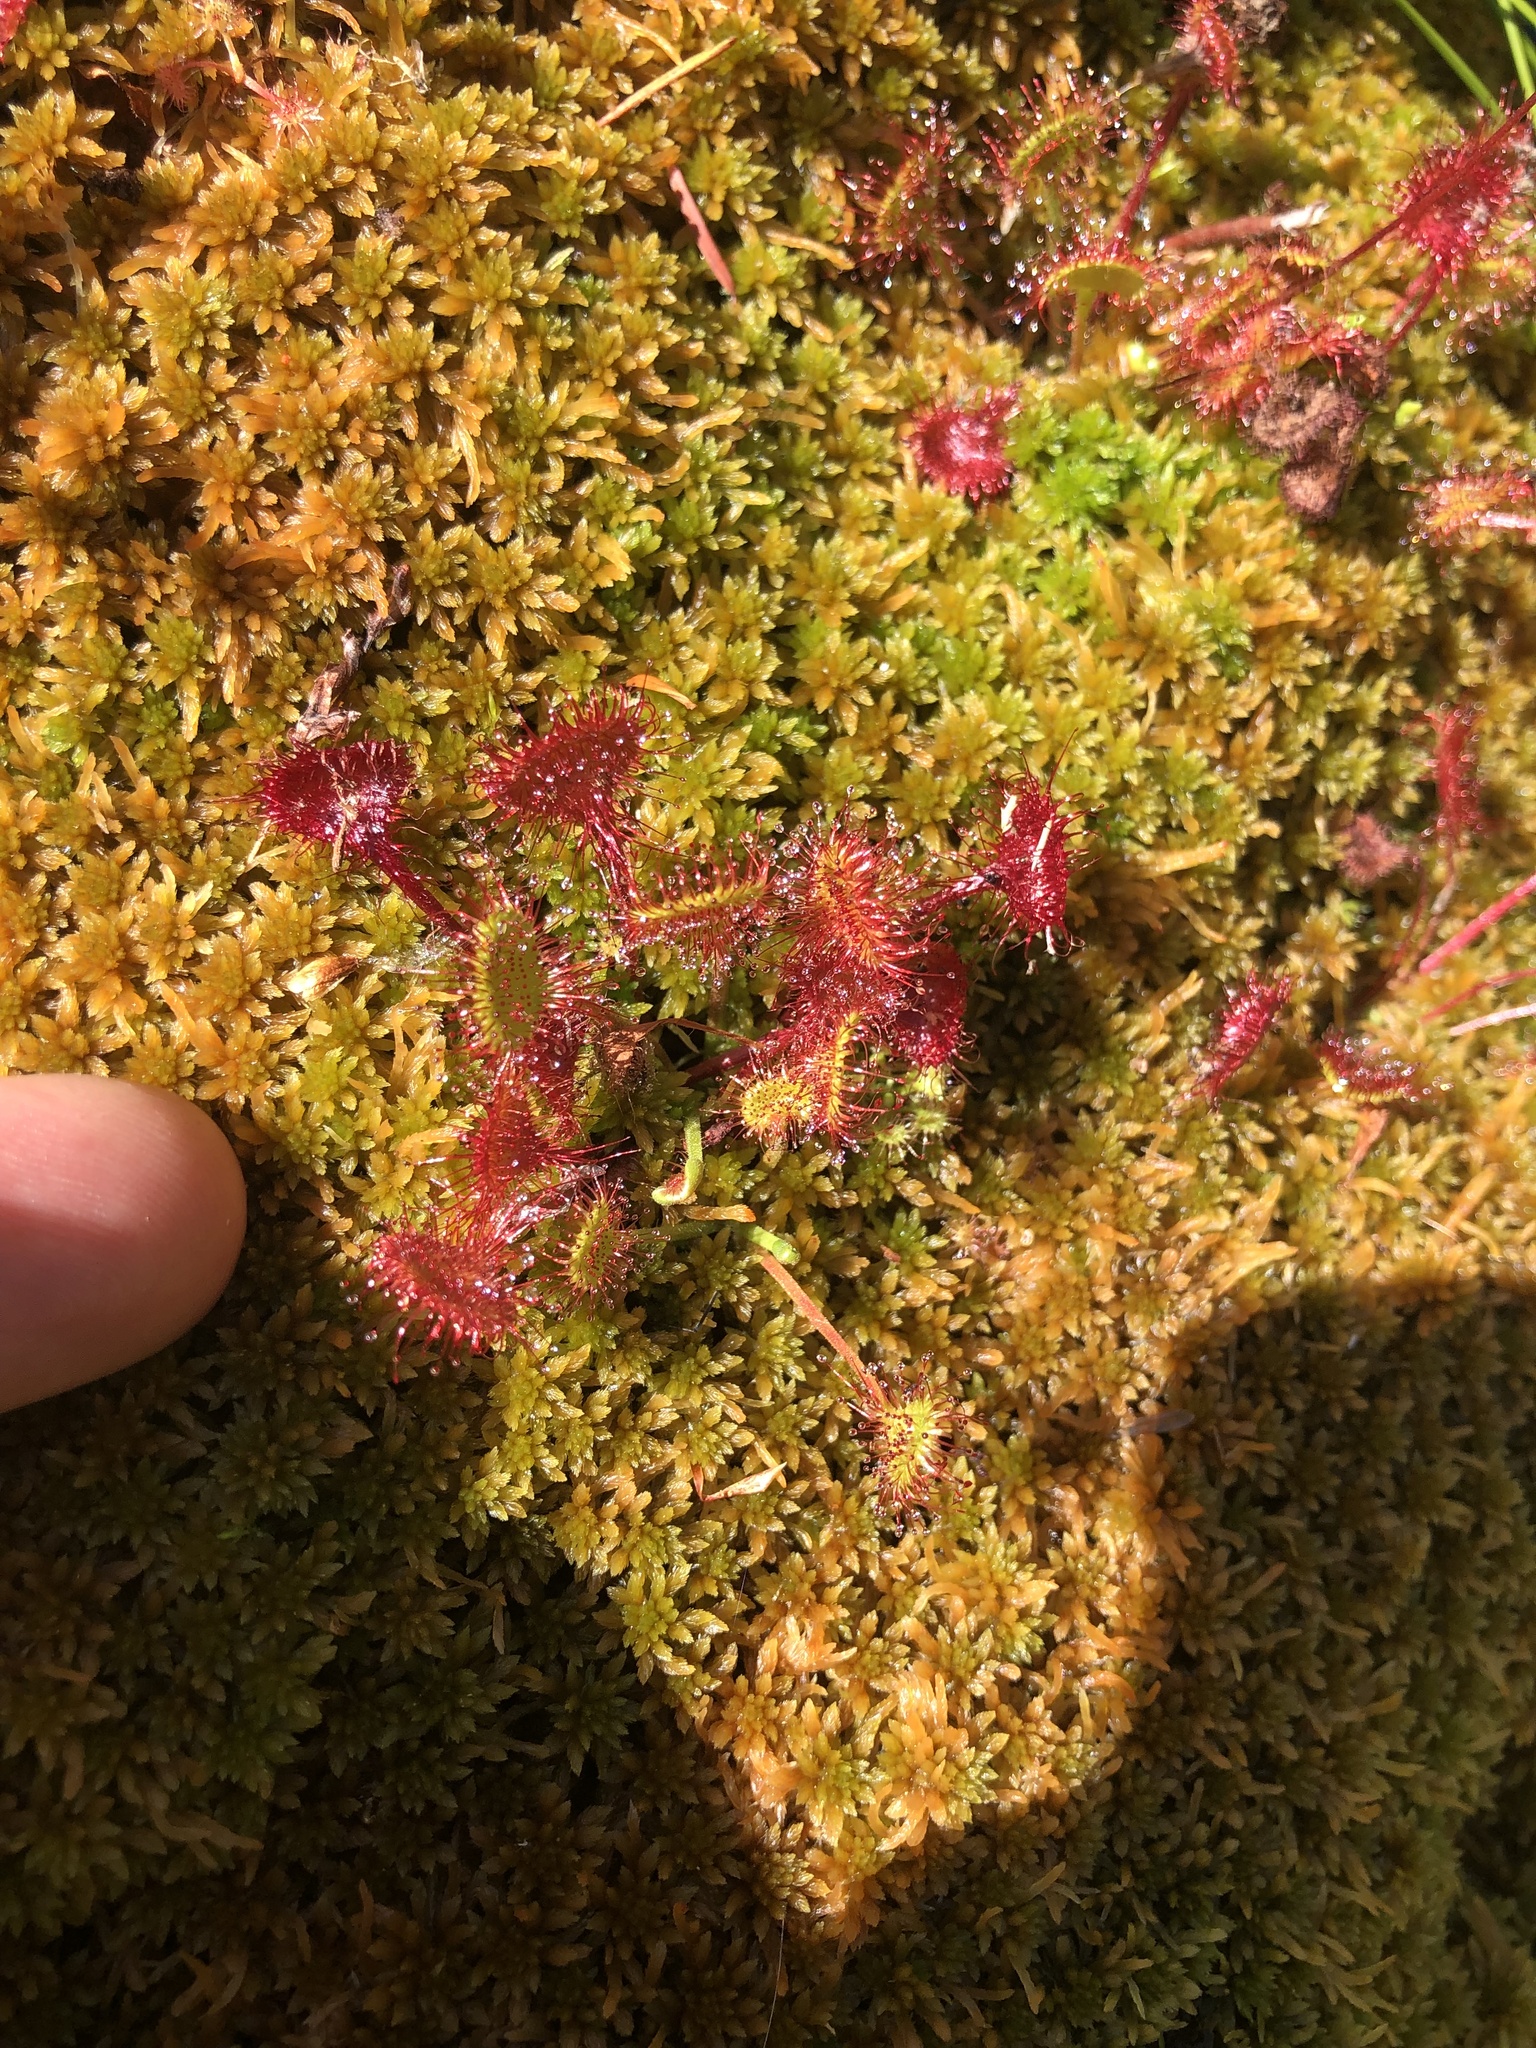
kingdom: Plantae
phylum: Tracheophyta
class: Magnoliopsida
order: Caryophyllales
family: Droseraceae
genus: Drosera
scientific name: Drosera rotundifolia
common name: Round-leaved sundew
